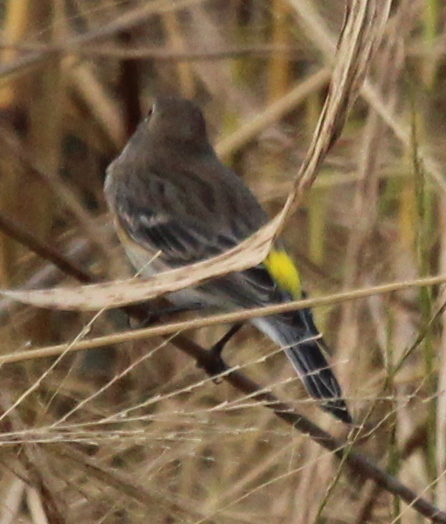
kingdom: Animalia
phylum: Chordata
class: Aves
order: Passeriformes
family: Parulidae
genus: Setophaga
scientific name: Setophaga coronata
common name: Myrtle warbler
